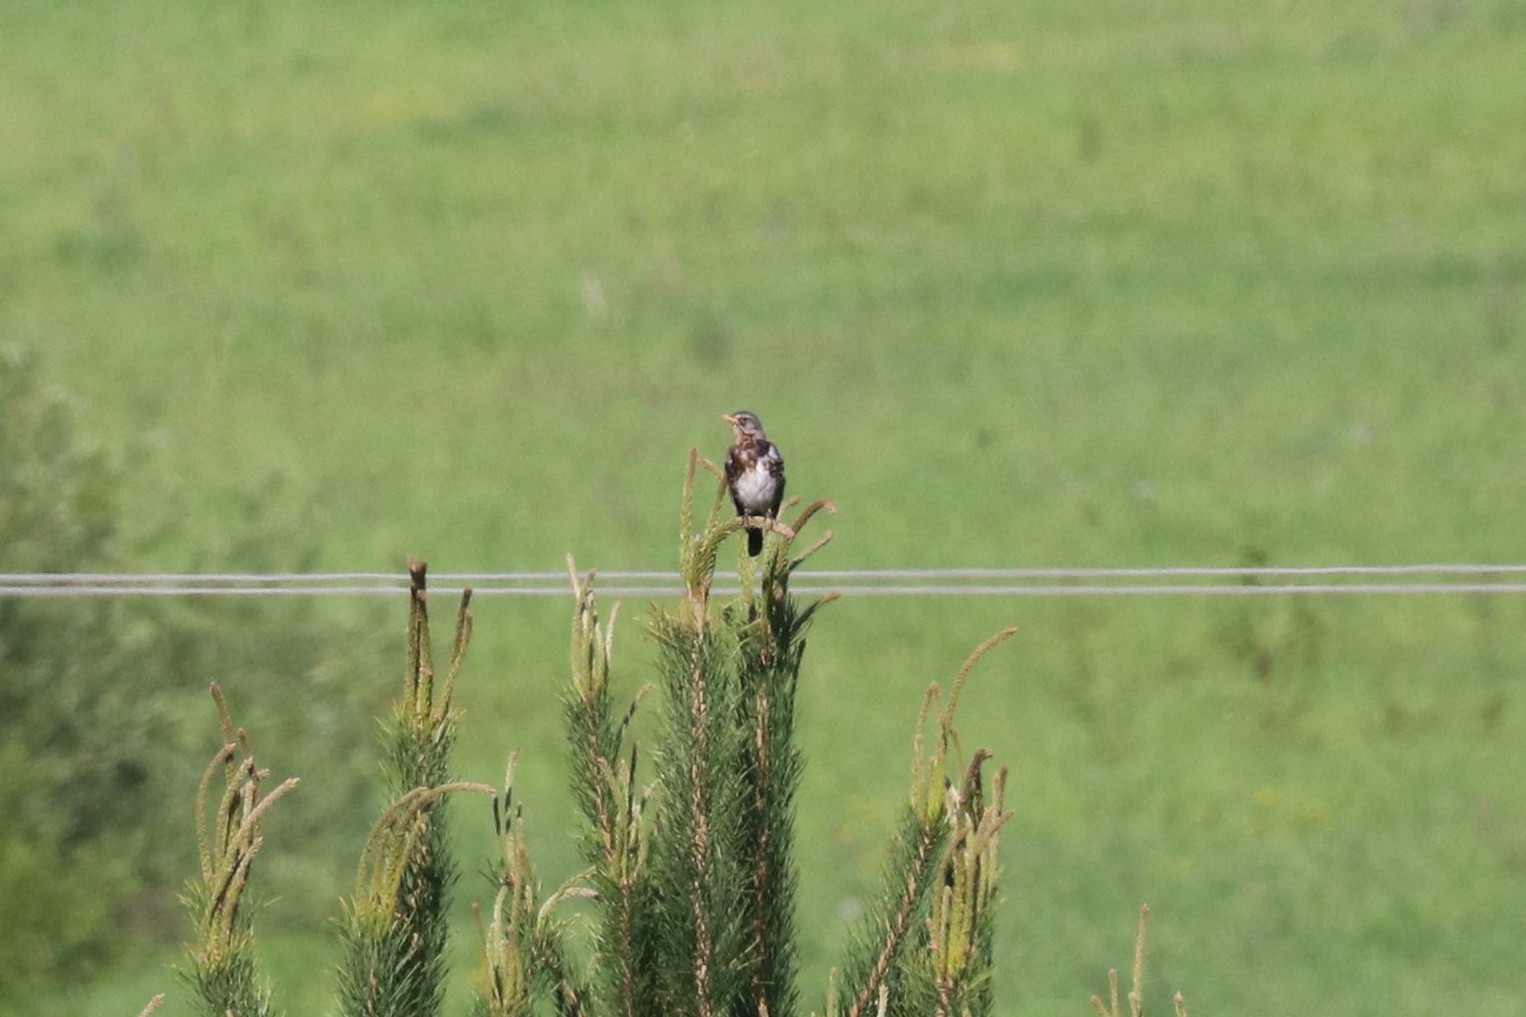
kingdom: Animalia
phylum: Chordata
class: Aves
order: Passeriformes
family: Turdidae
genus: Turdus
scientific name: Turdus pilaris
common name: Fieldfare
